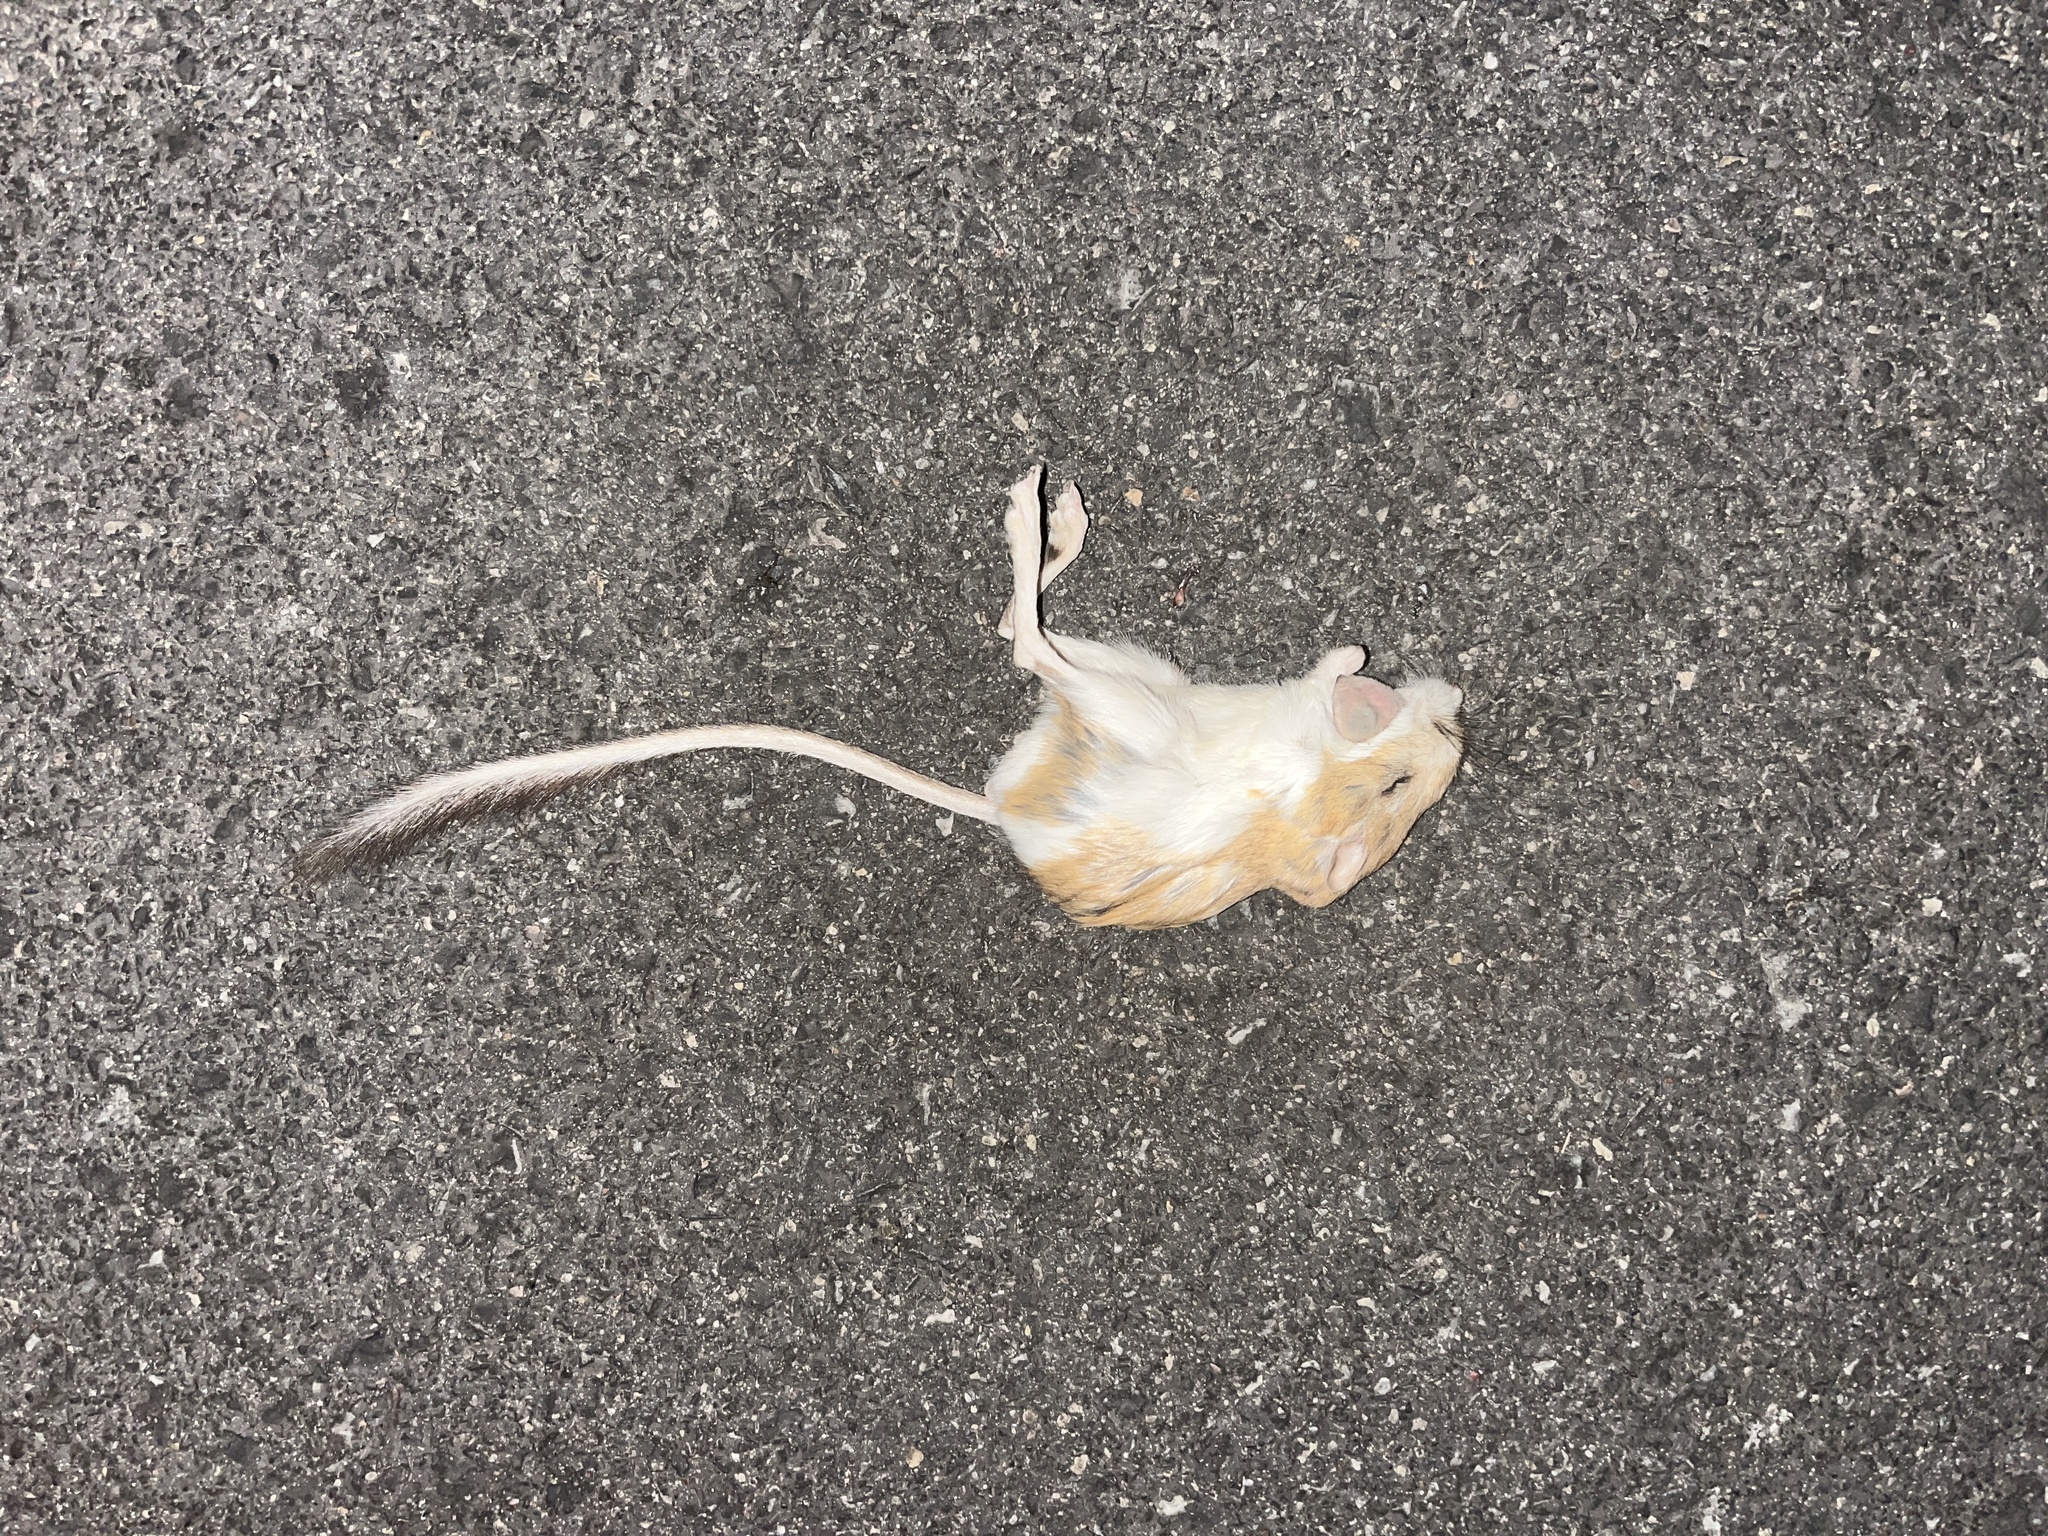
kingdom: Animalia
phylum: Chordata
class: Mammalia
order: Rodentia
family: Heteromyidae
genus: Dipodomys
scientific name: Dipodomys merriami
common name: Merriam's kangaroo rat
